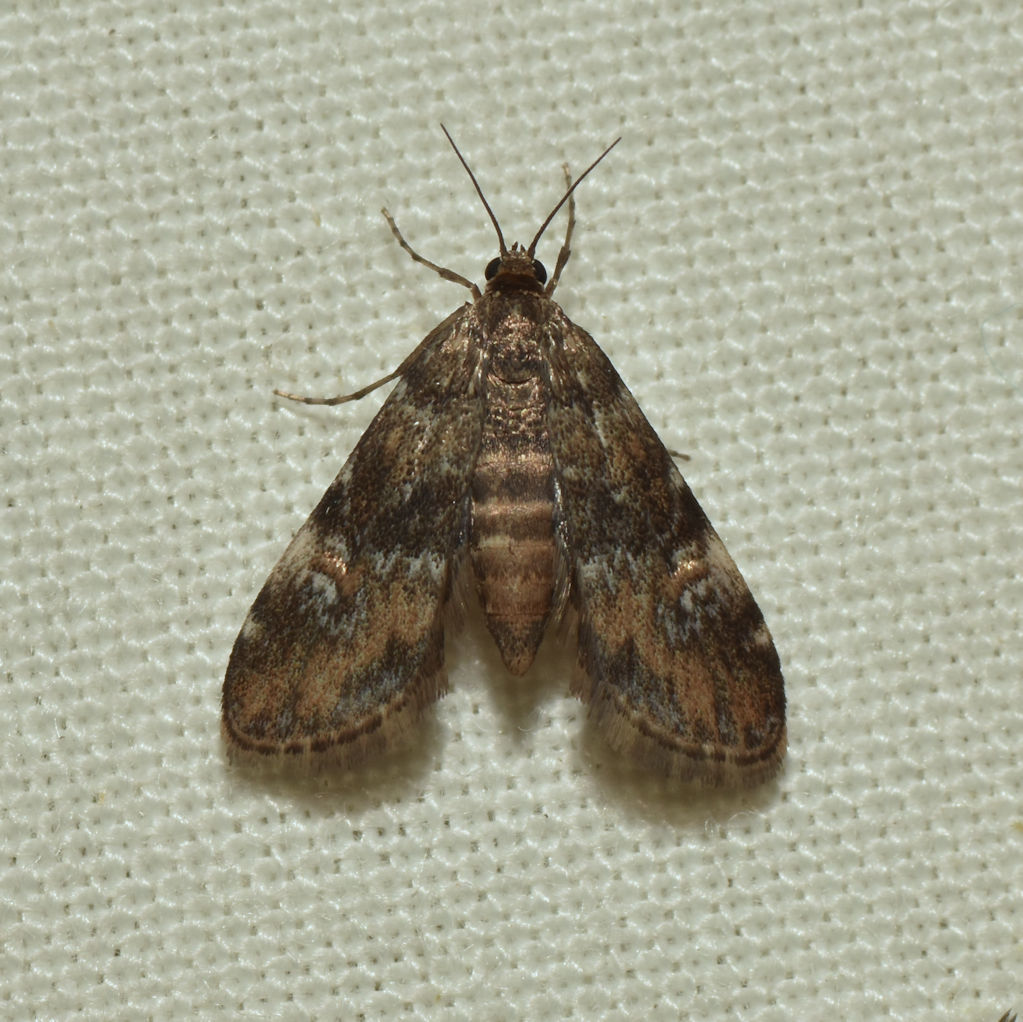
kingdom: Animalia
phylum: Arthropoda
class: Insecta
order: Lepidoptera
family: Crambidae
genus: Elophila
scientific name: Elophila obliteralis
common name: Waterlily leafcutter moth
